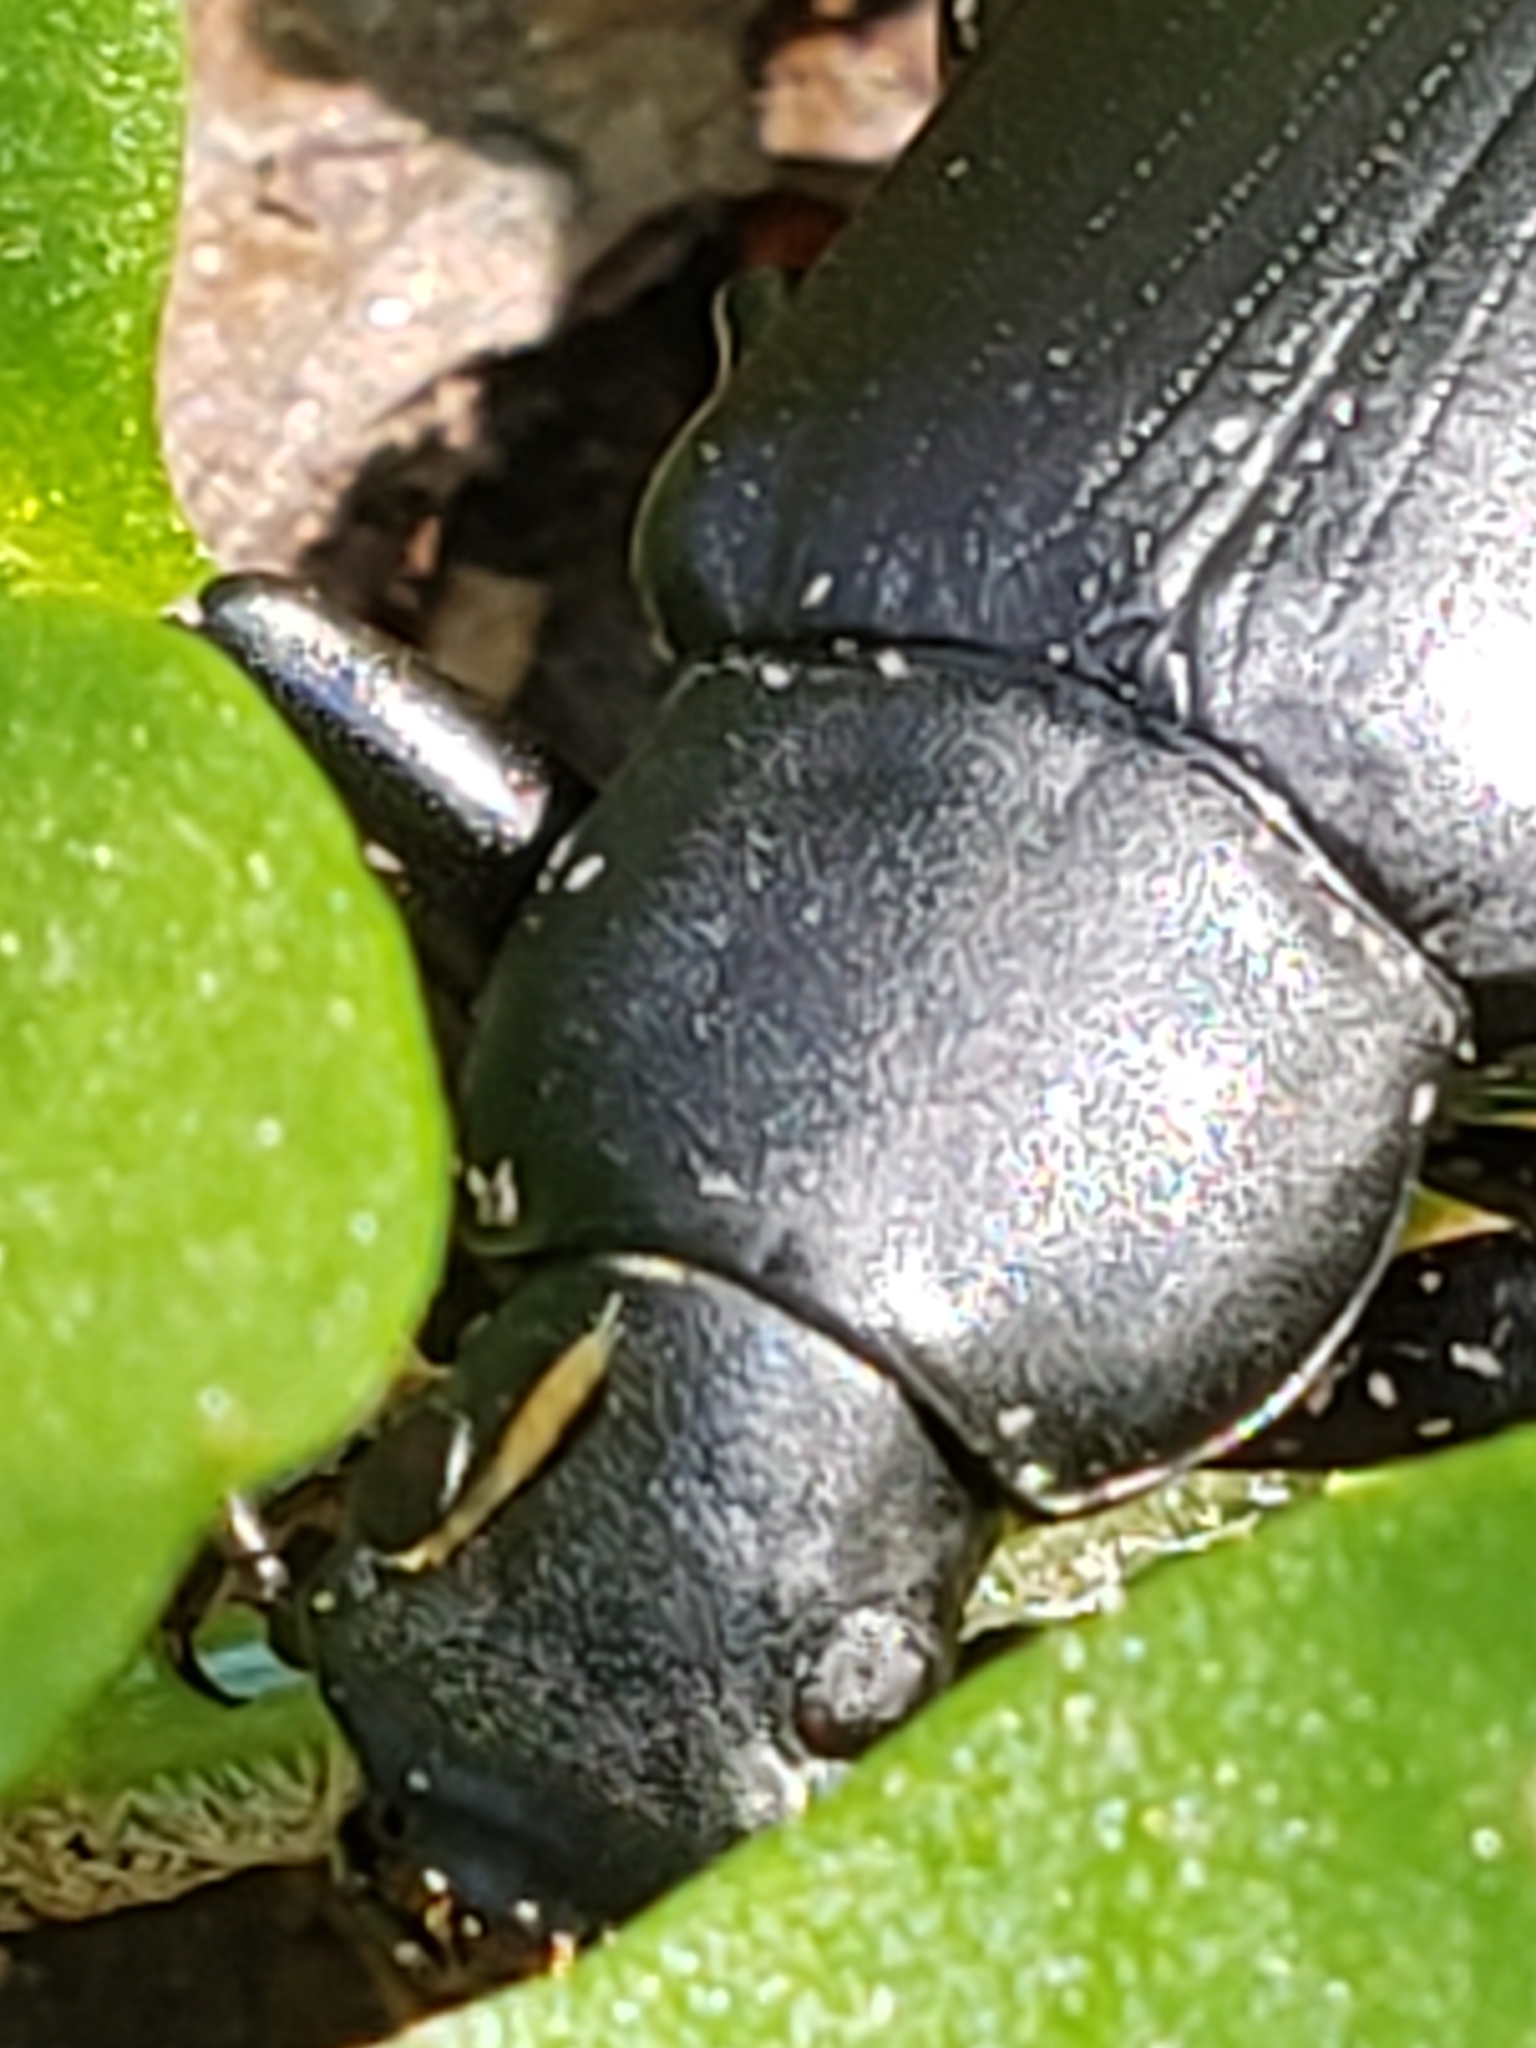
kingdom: Animalia
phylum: Arthropoda
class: Insecta
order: Coleoptera
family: Tenebrionidae
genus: Alobates
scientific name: Alobates
